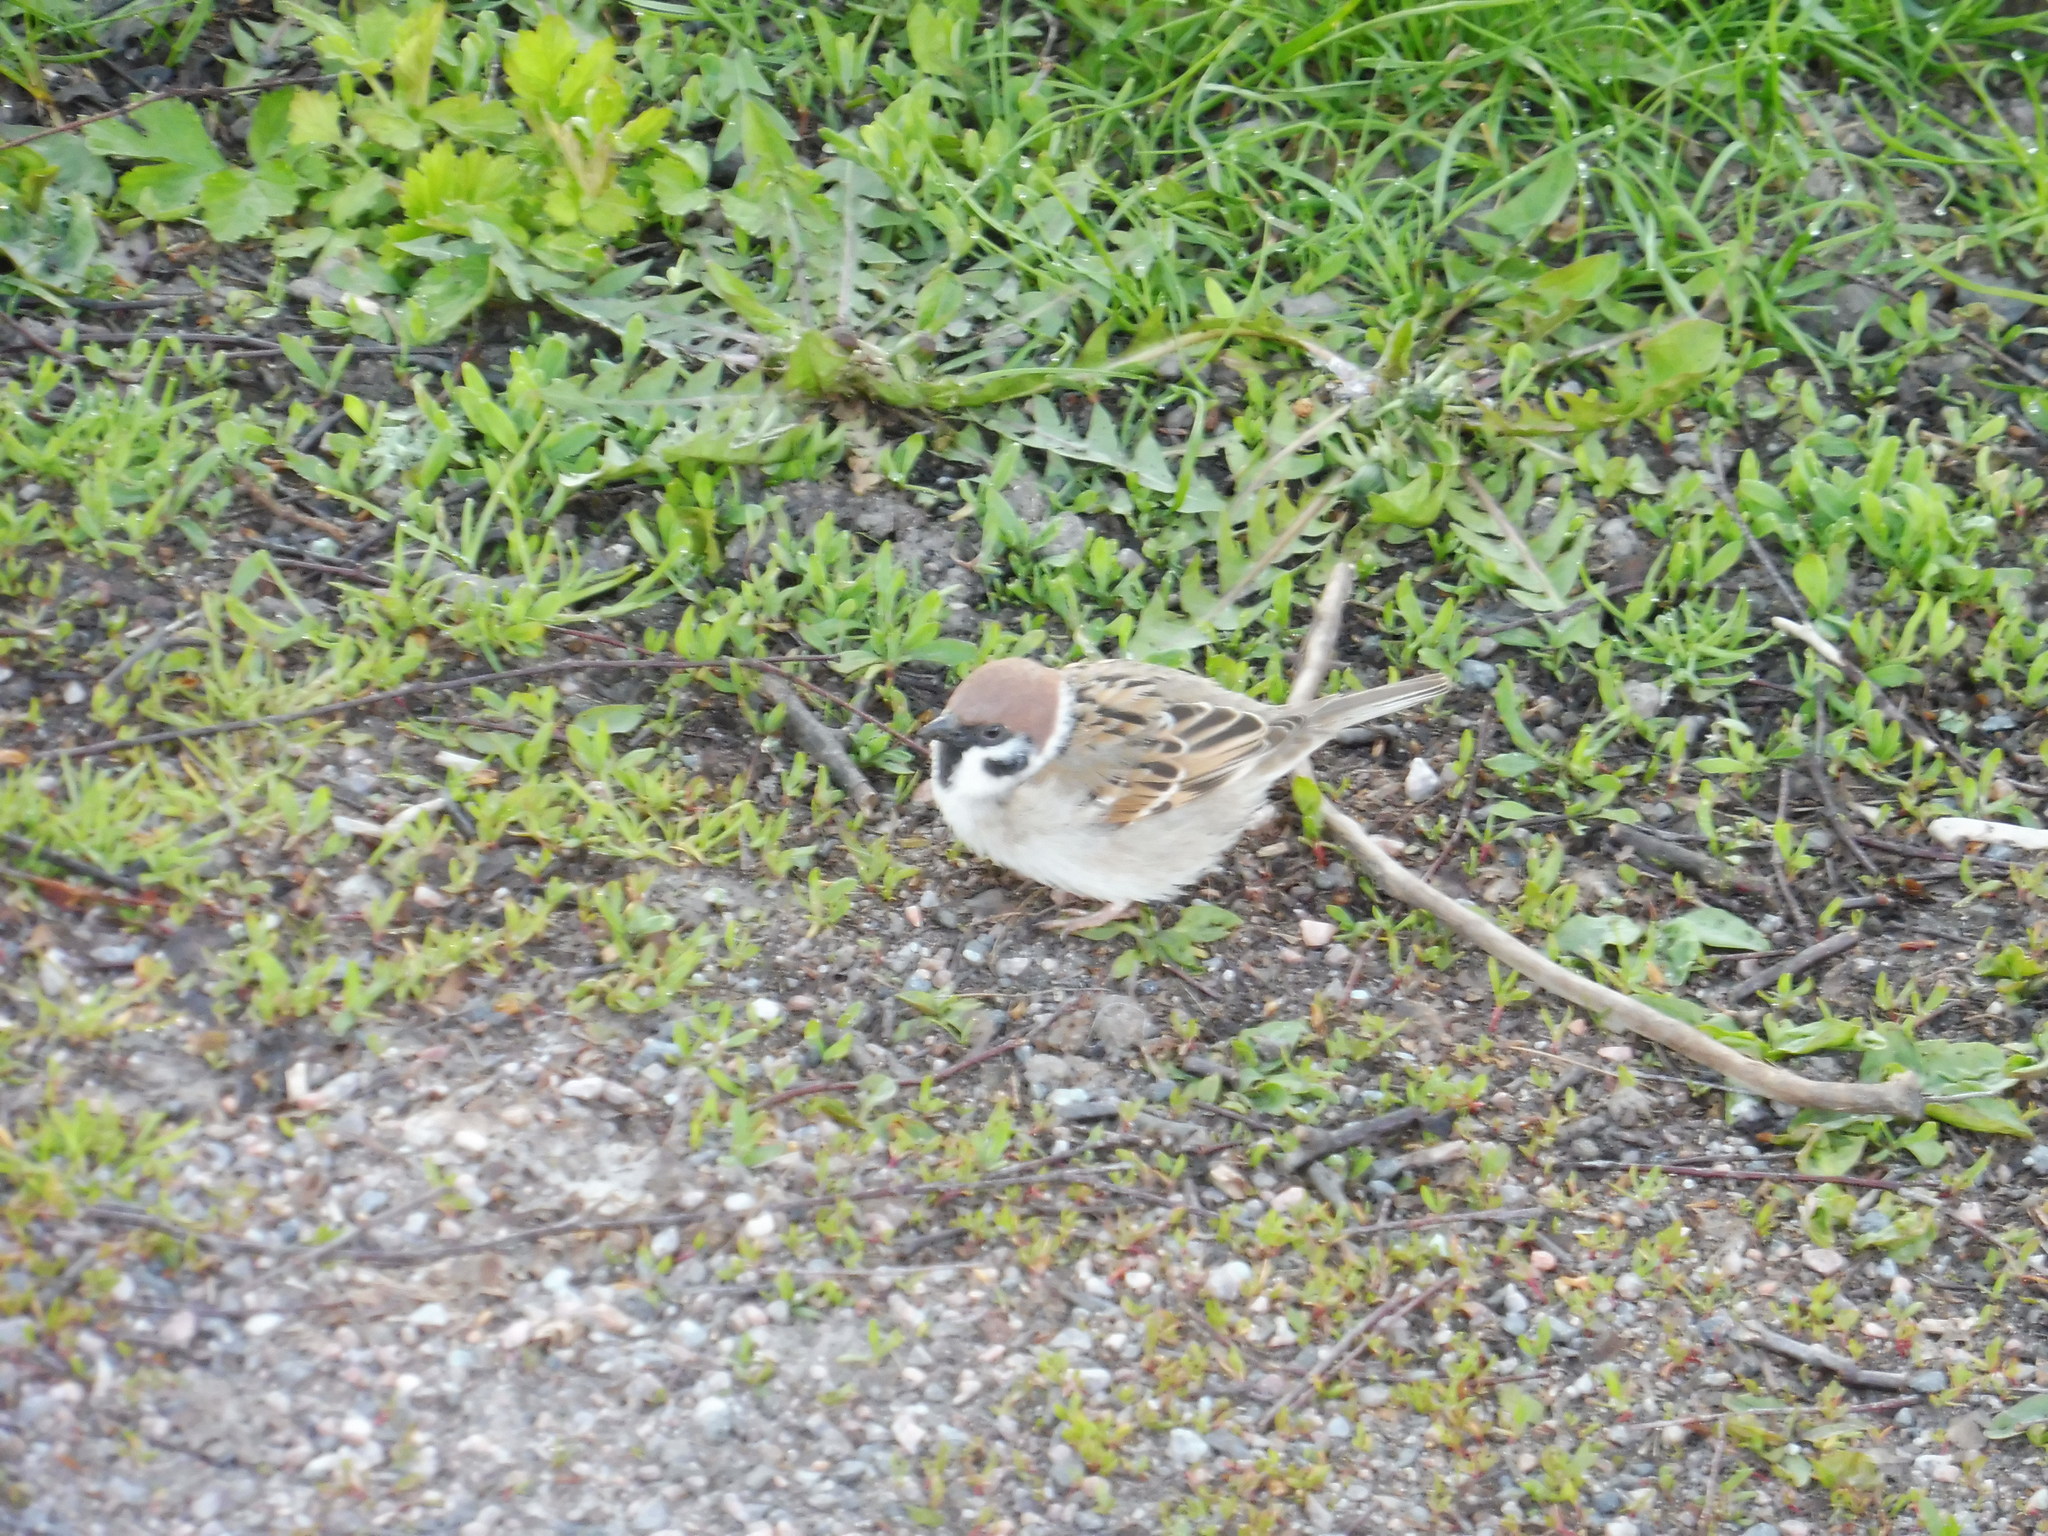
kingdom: Animalia
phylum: Chordata
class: Aves
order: Passeriformes
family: Passeridae
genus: Passer
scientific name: Passer montanus
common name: Eurasian tree sparrow
